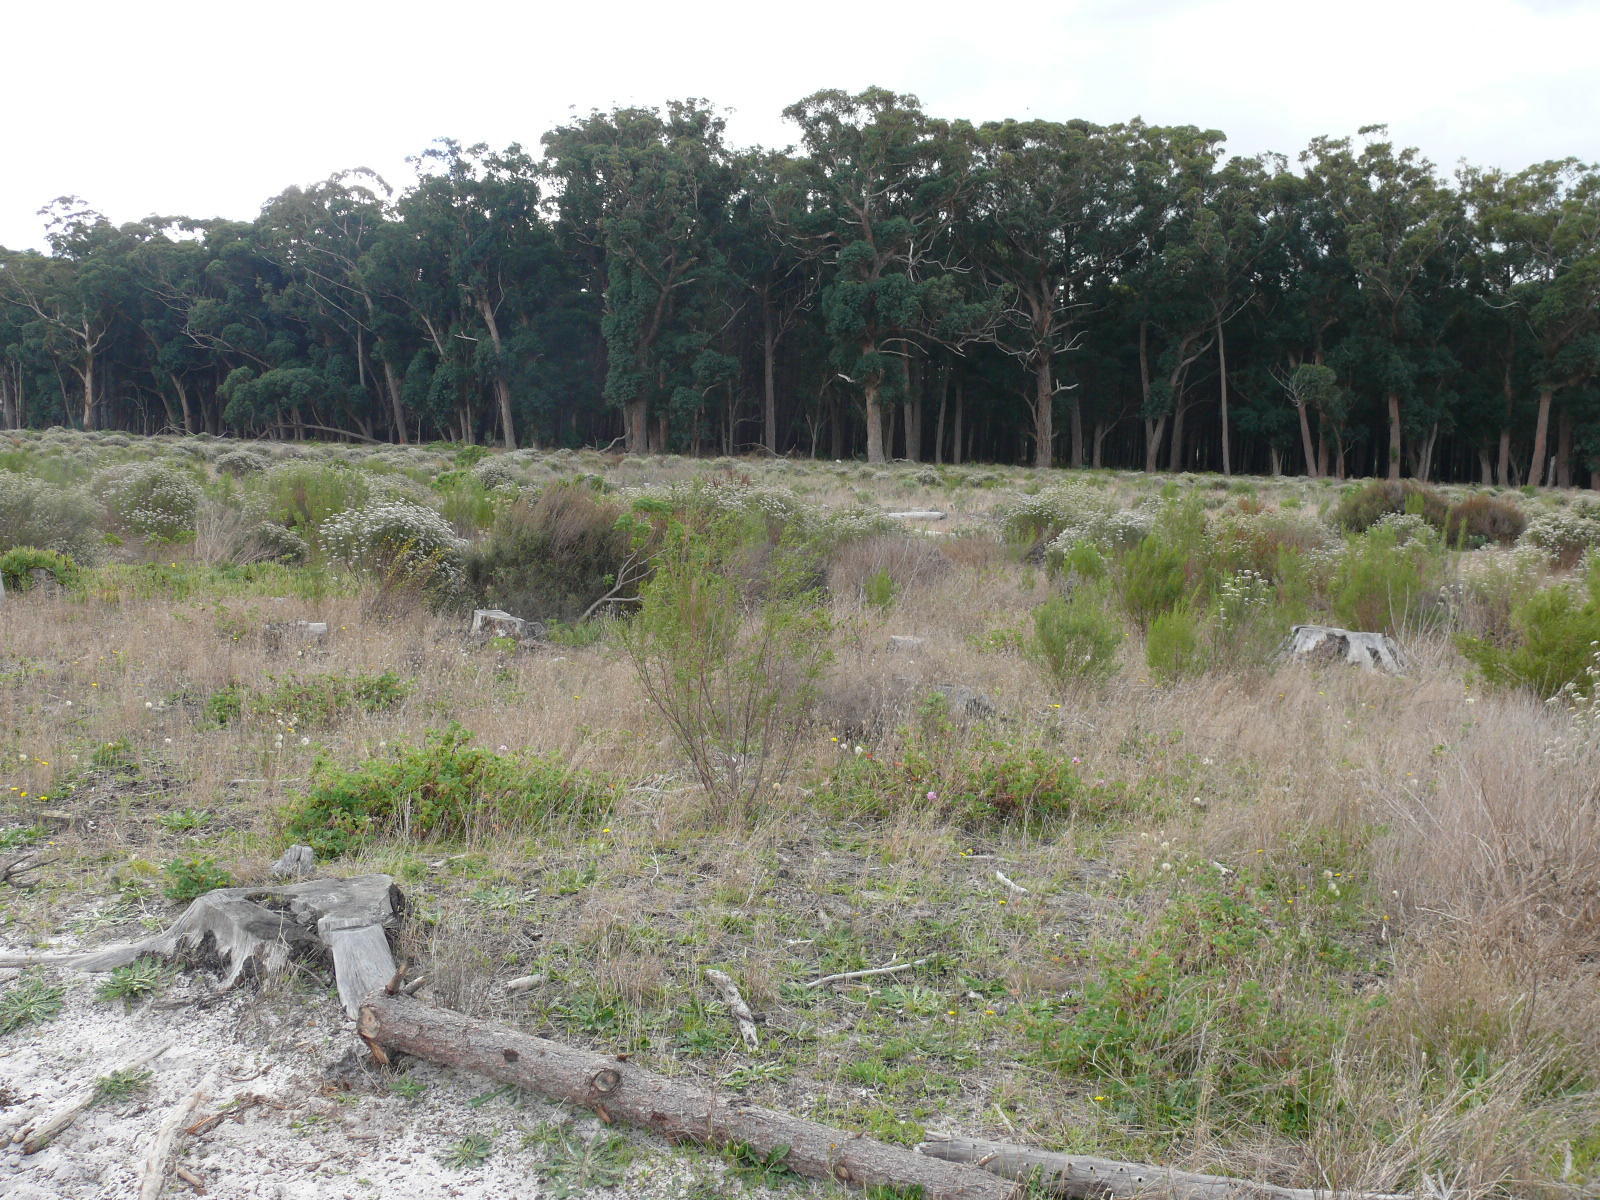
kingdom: Plantae
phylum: Tracheophyta
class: Magnoliopsida
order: Myrtales
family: Myrtaceae
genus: Eucalyptus
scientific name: Eucalyptus botryoides
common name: Bangalay
